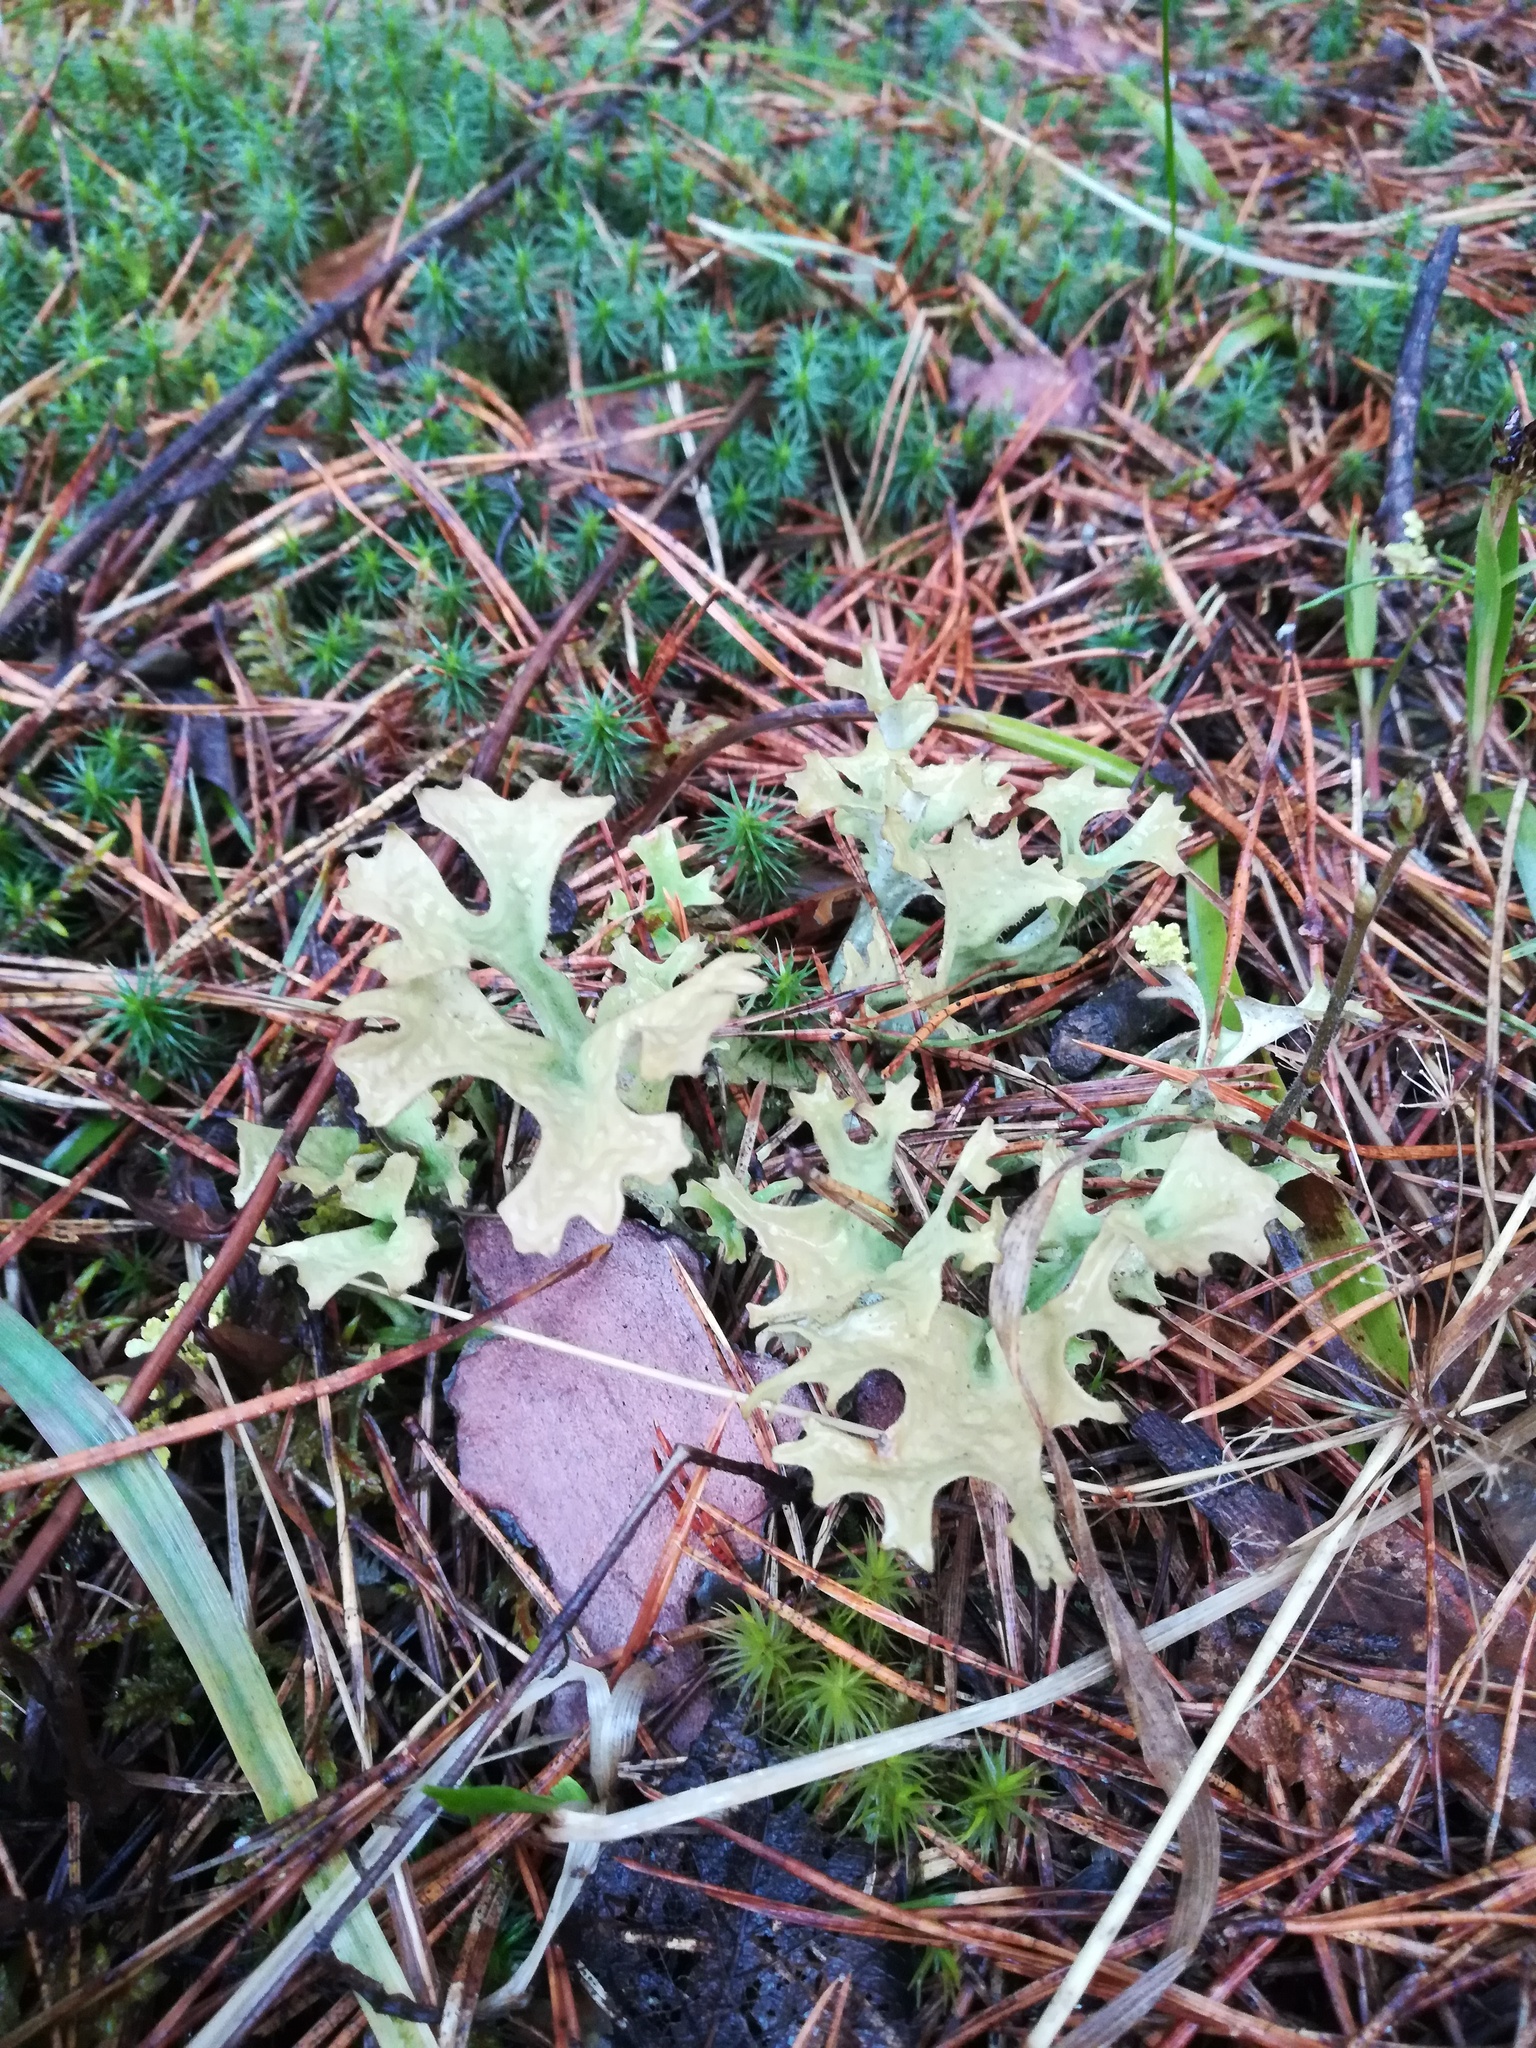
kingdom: Fungi
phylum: Ascomycota
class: Lecanoromycetes
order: Lecanorales
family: Parmeliaceae
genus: Cetraria
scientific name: Cetraria islandica
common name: Iceland lichen
